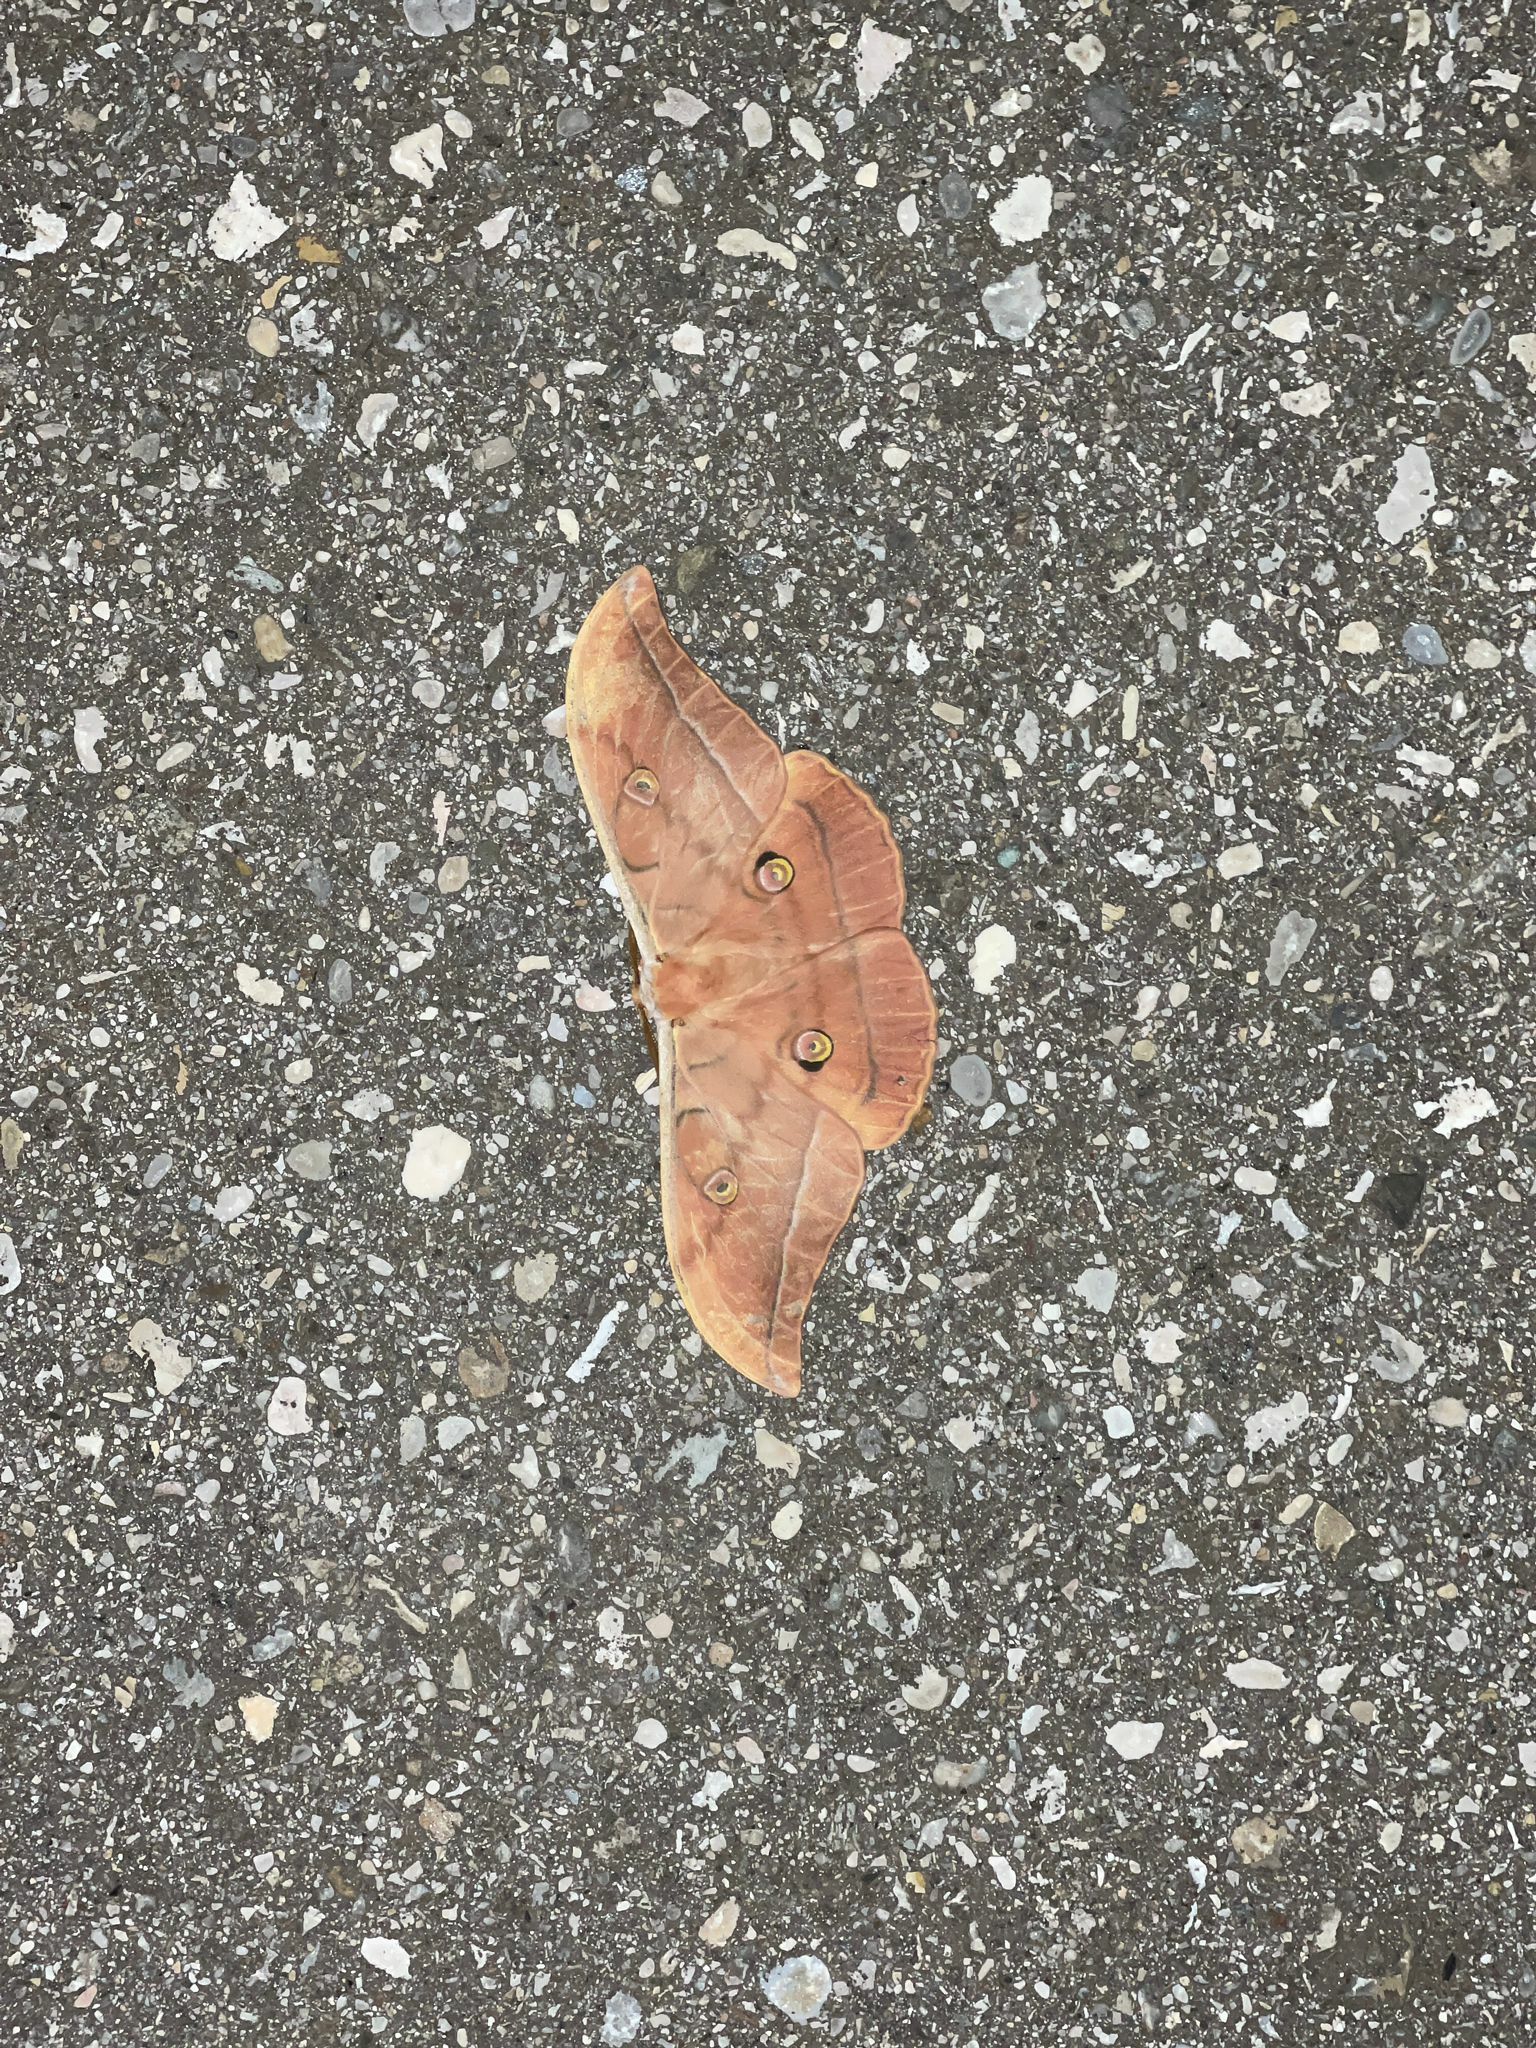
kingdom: Animalia
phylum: Arthropoda
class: Insecta
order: Lepidoptera
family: Saturniidae
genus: Antheraea
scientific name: Antheraea yamamai
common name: Japanese oak silk moth
